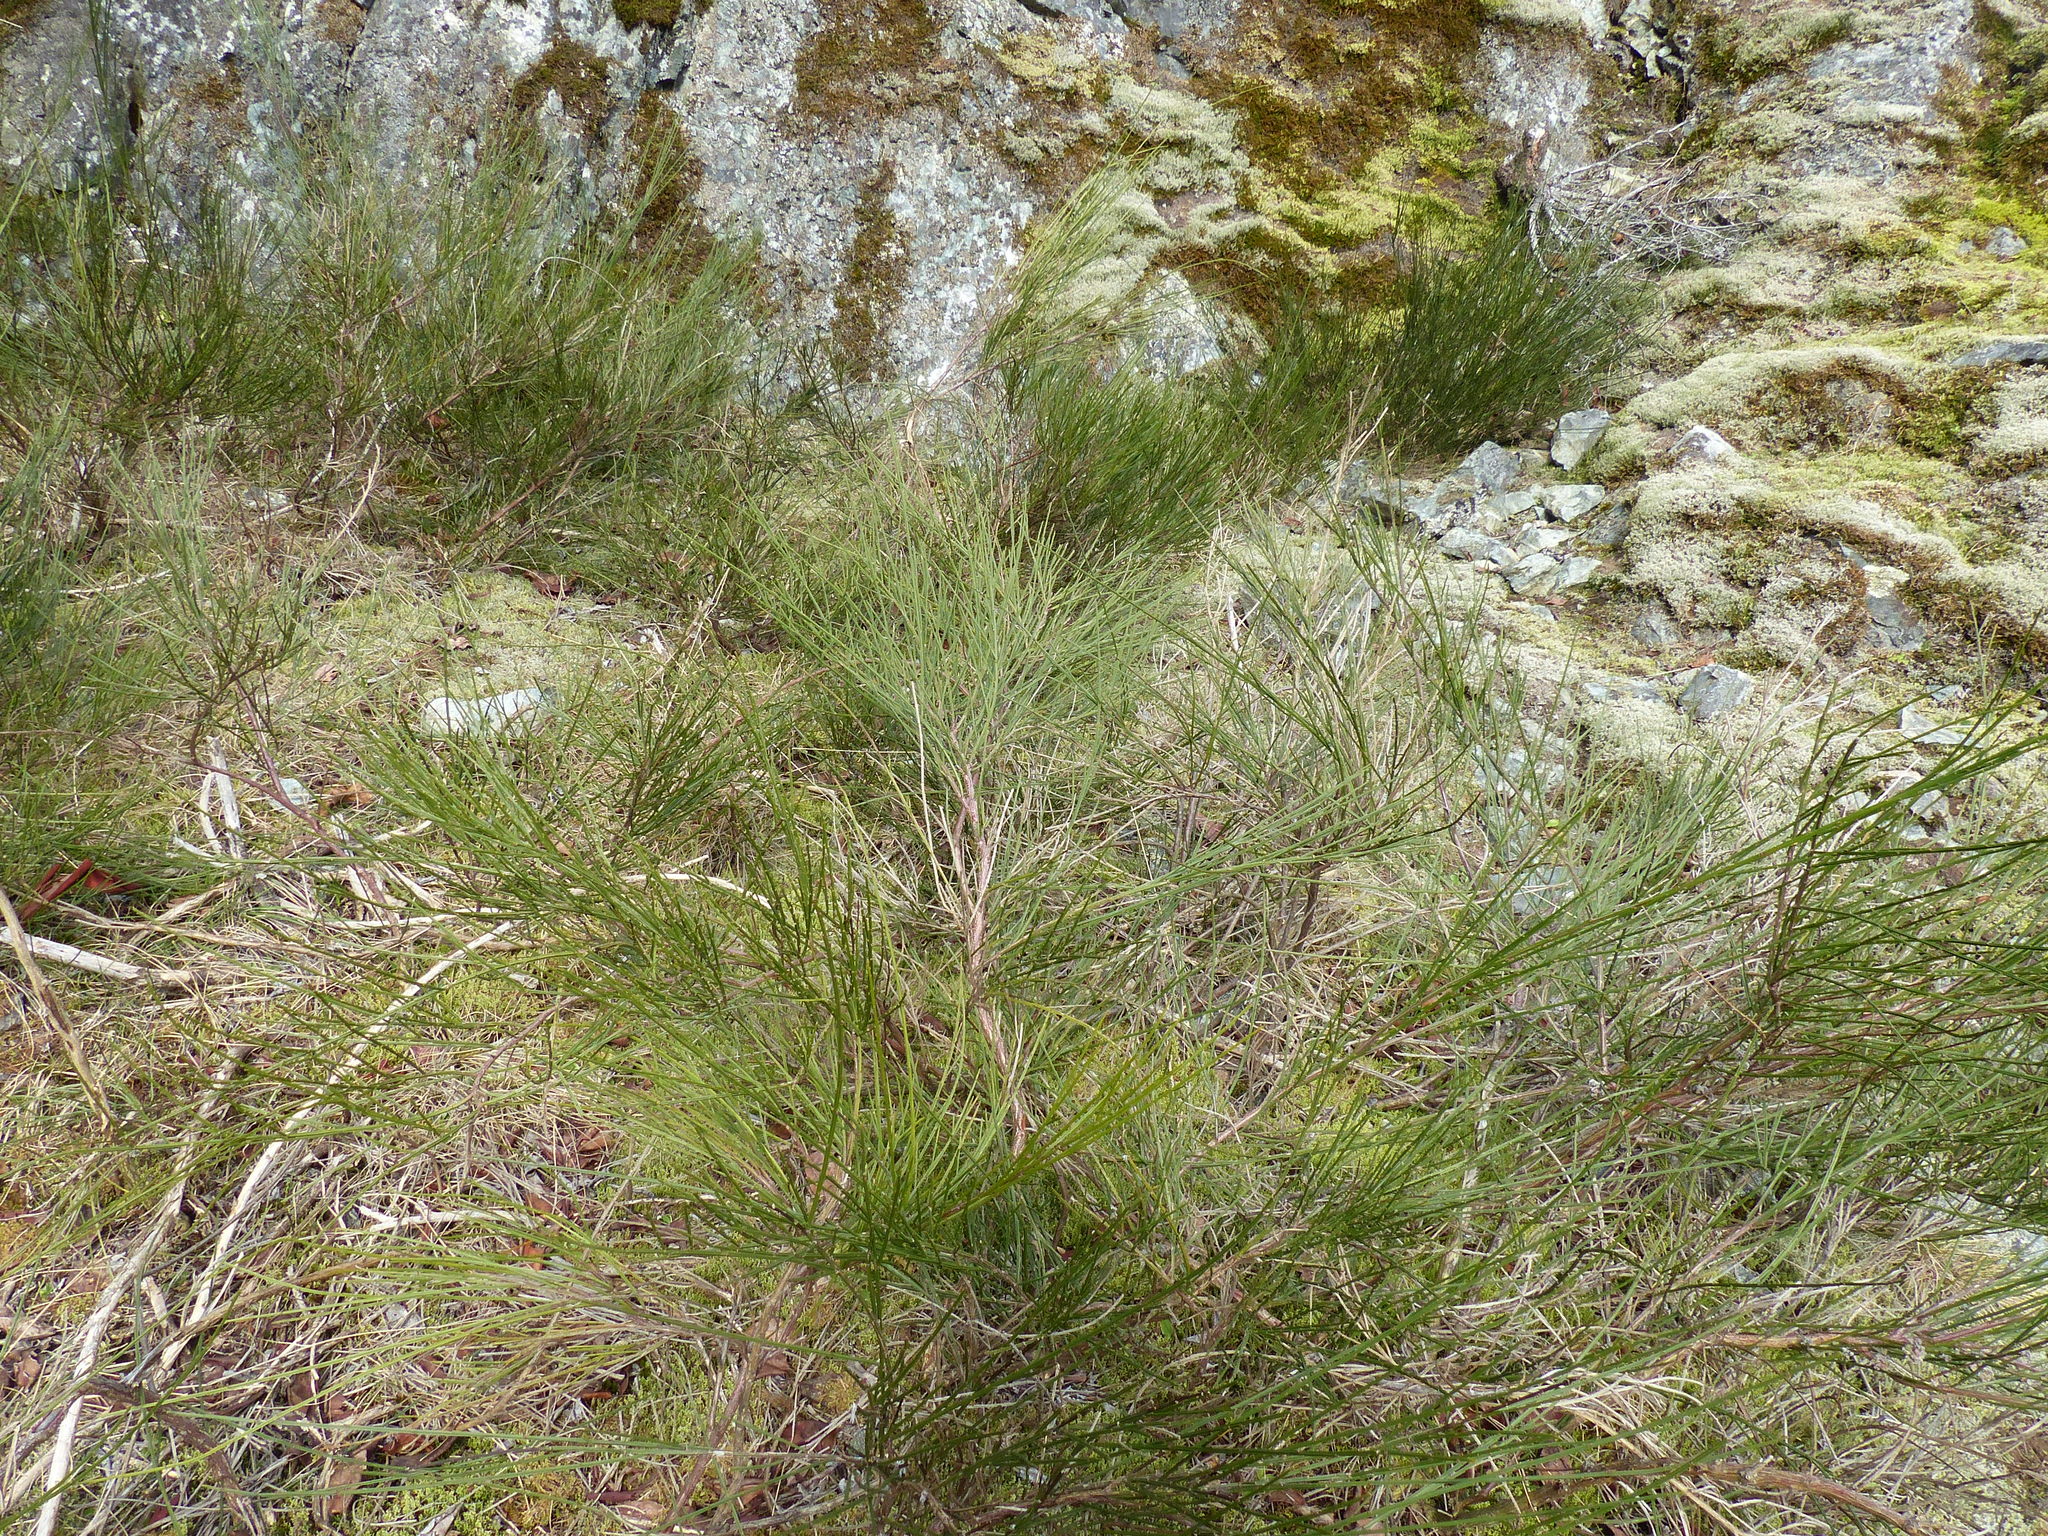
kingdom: Plantae
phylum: Tracheophyta
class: Magnoliopsida
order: Fabales
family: Fabaceae
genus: Cytisus
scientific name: Cytisus scoparius
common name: Scotch broom
